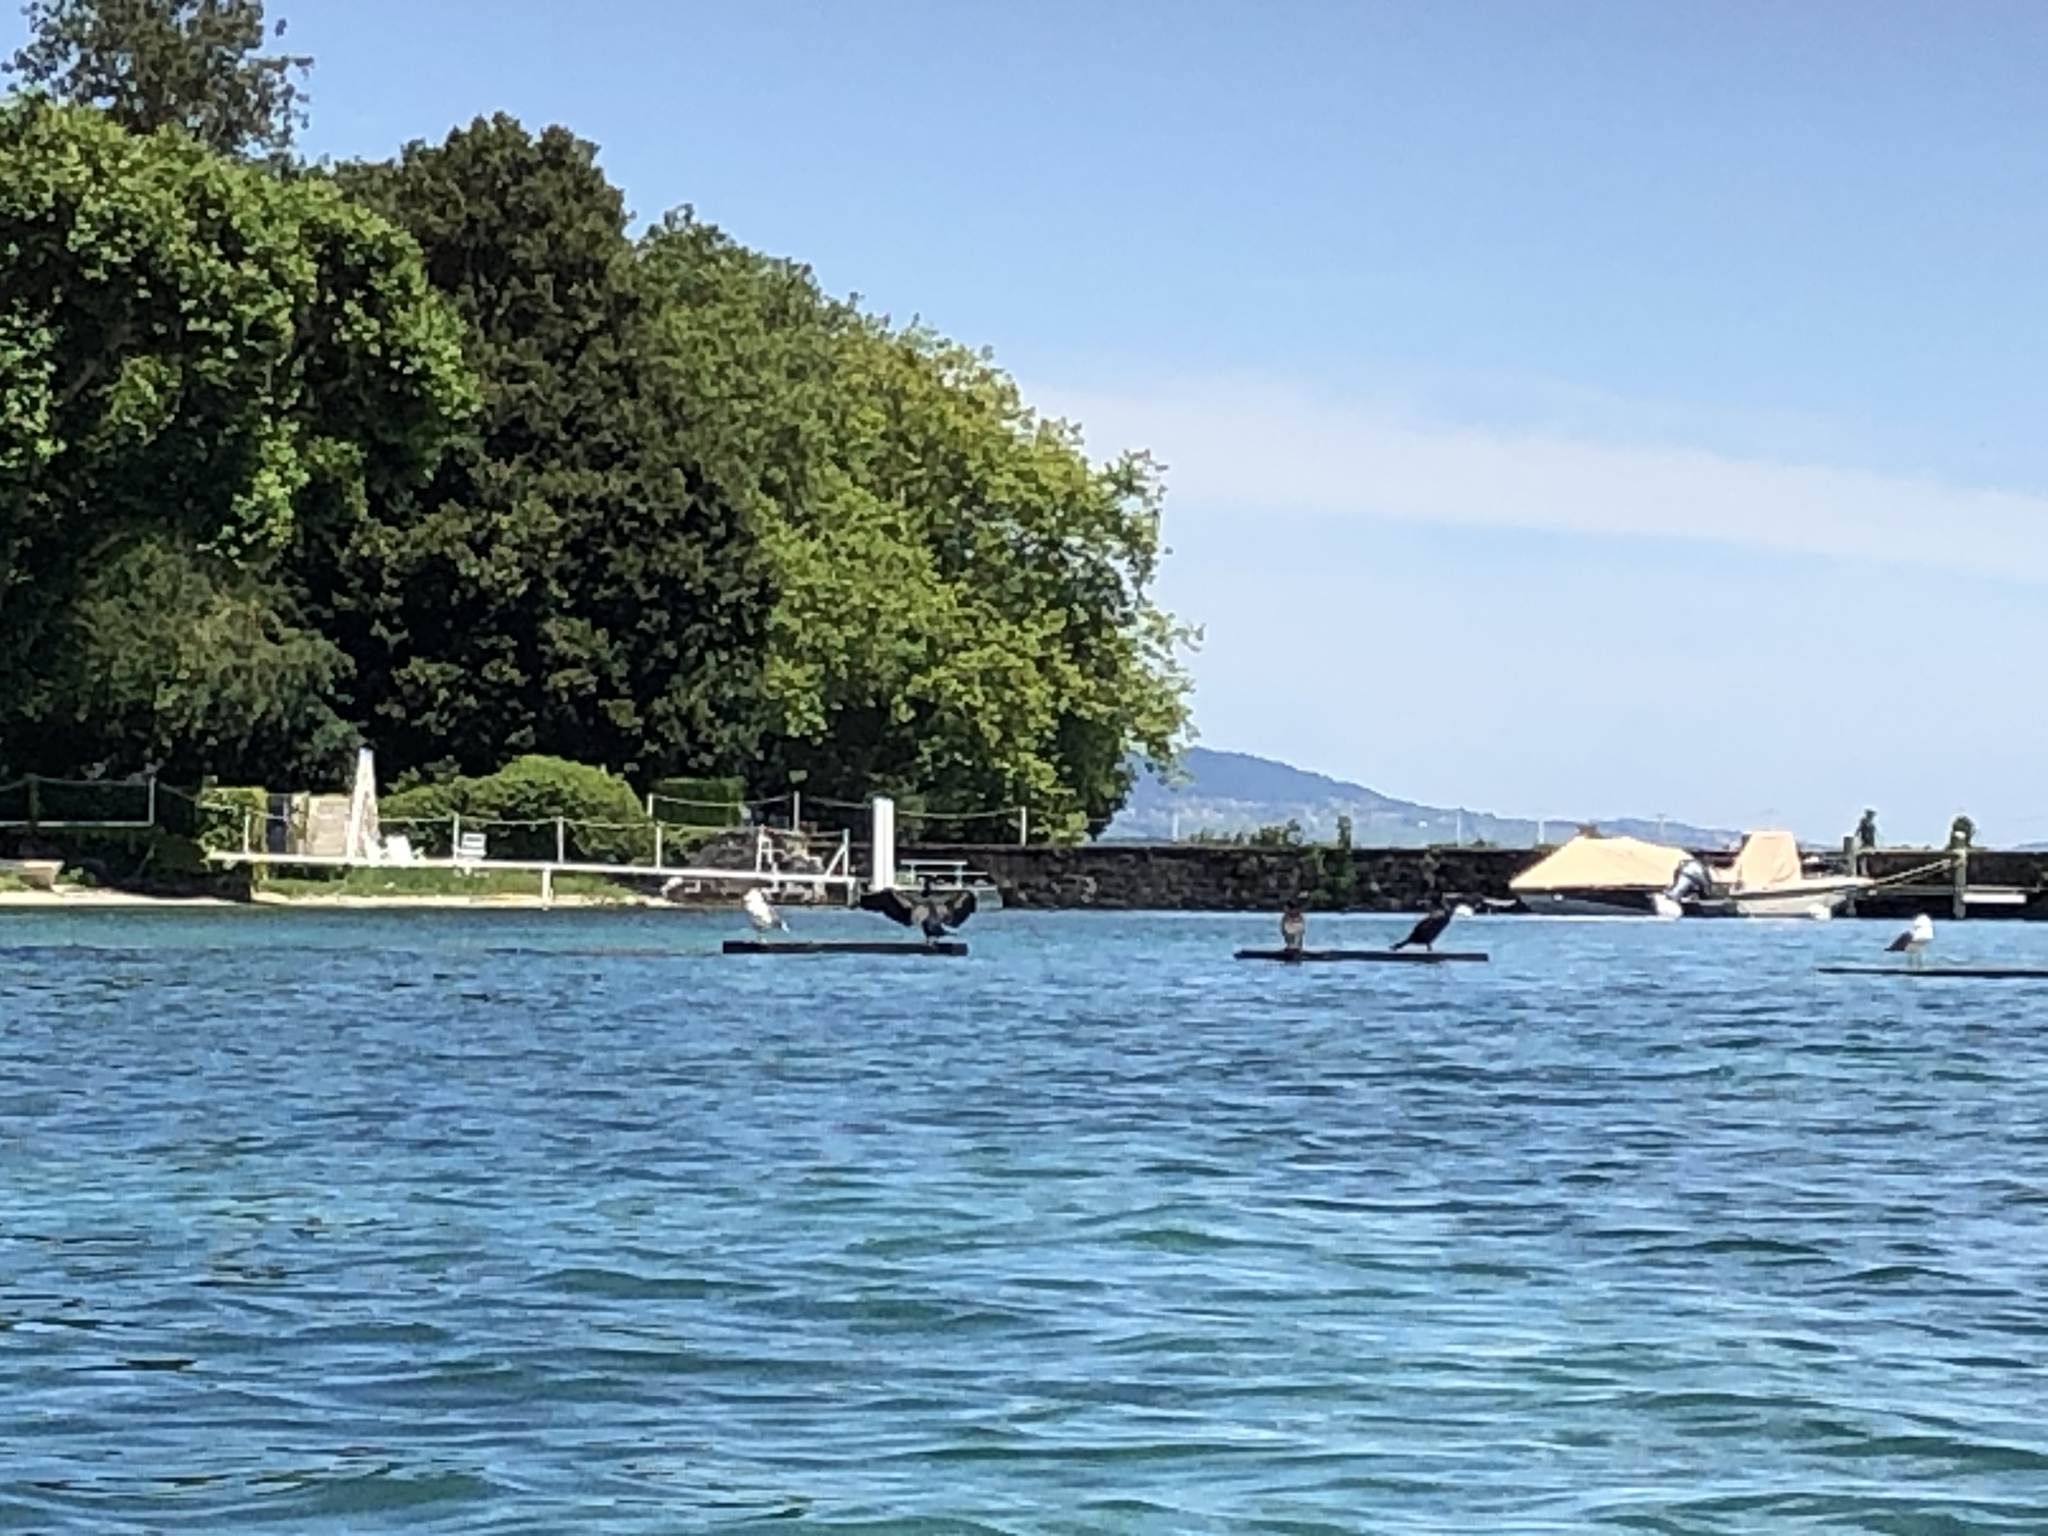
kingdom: Animalia
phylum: Chordata
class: Aves
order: Suliformes
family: Phalacrocoracidae
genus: Phalacrocorax
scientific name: Phalacrocorax carbo
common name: Great cormorant
